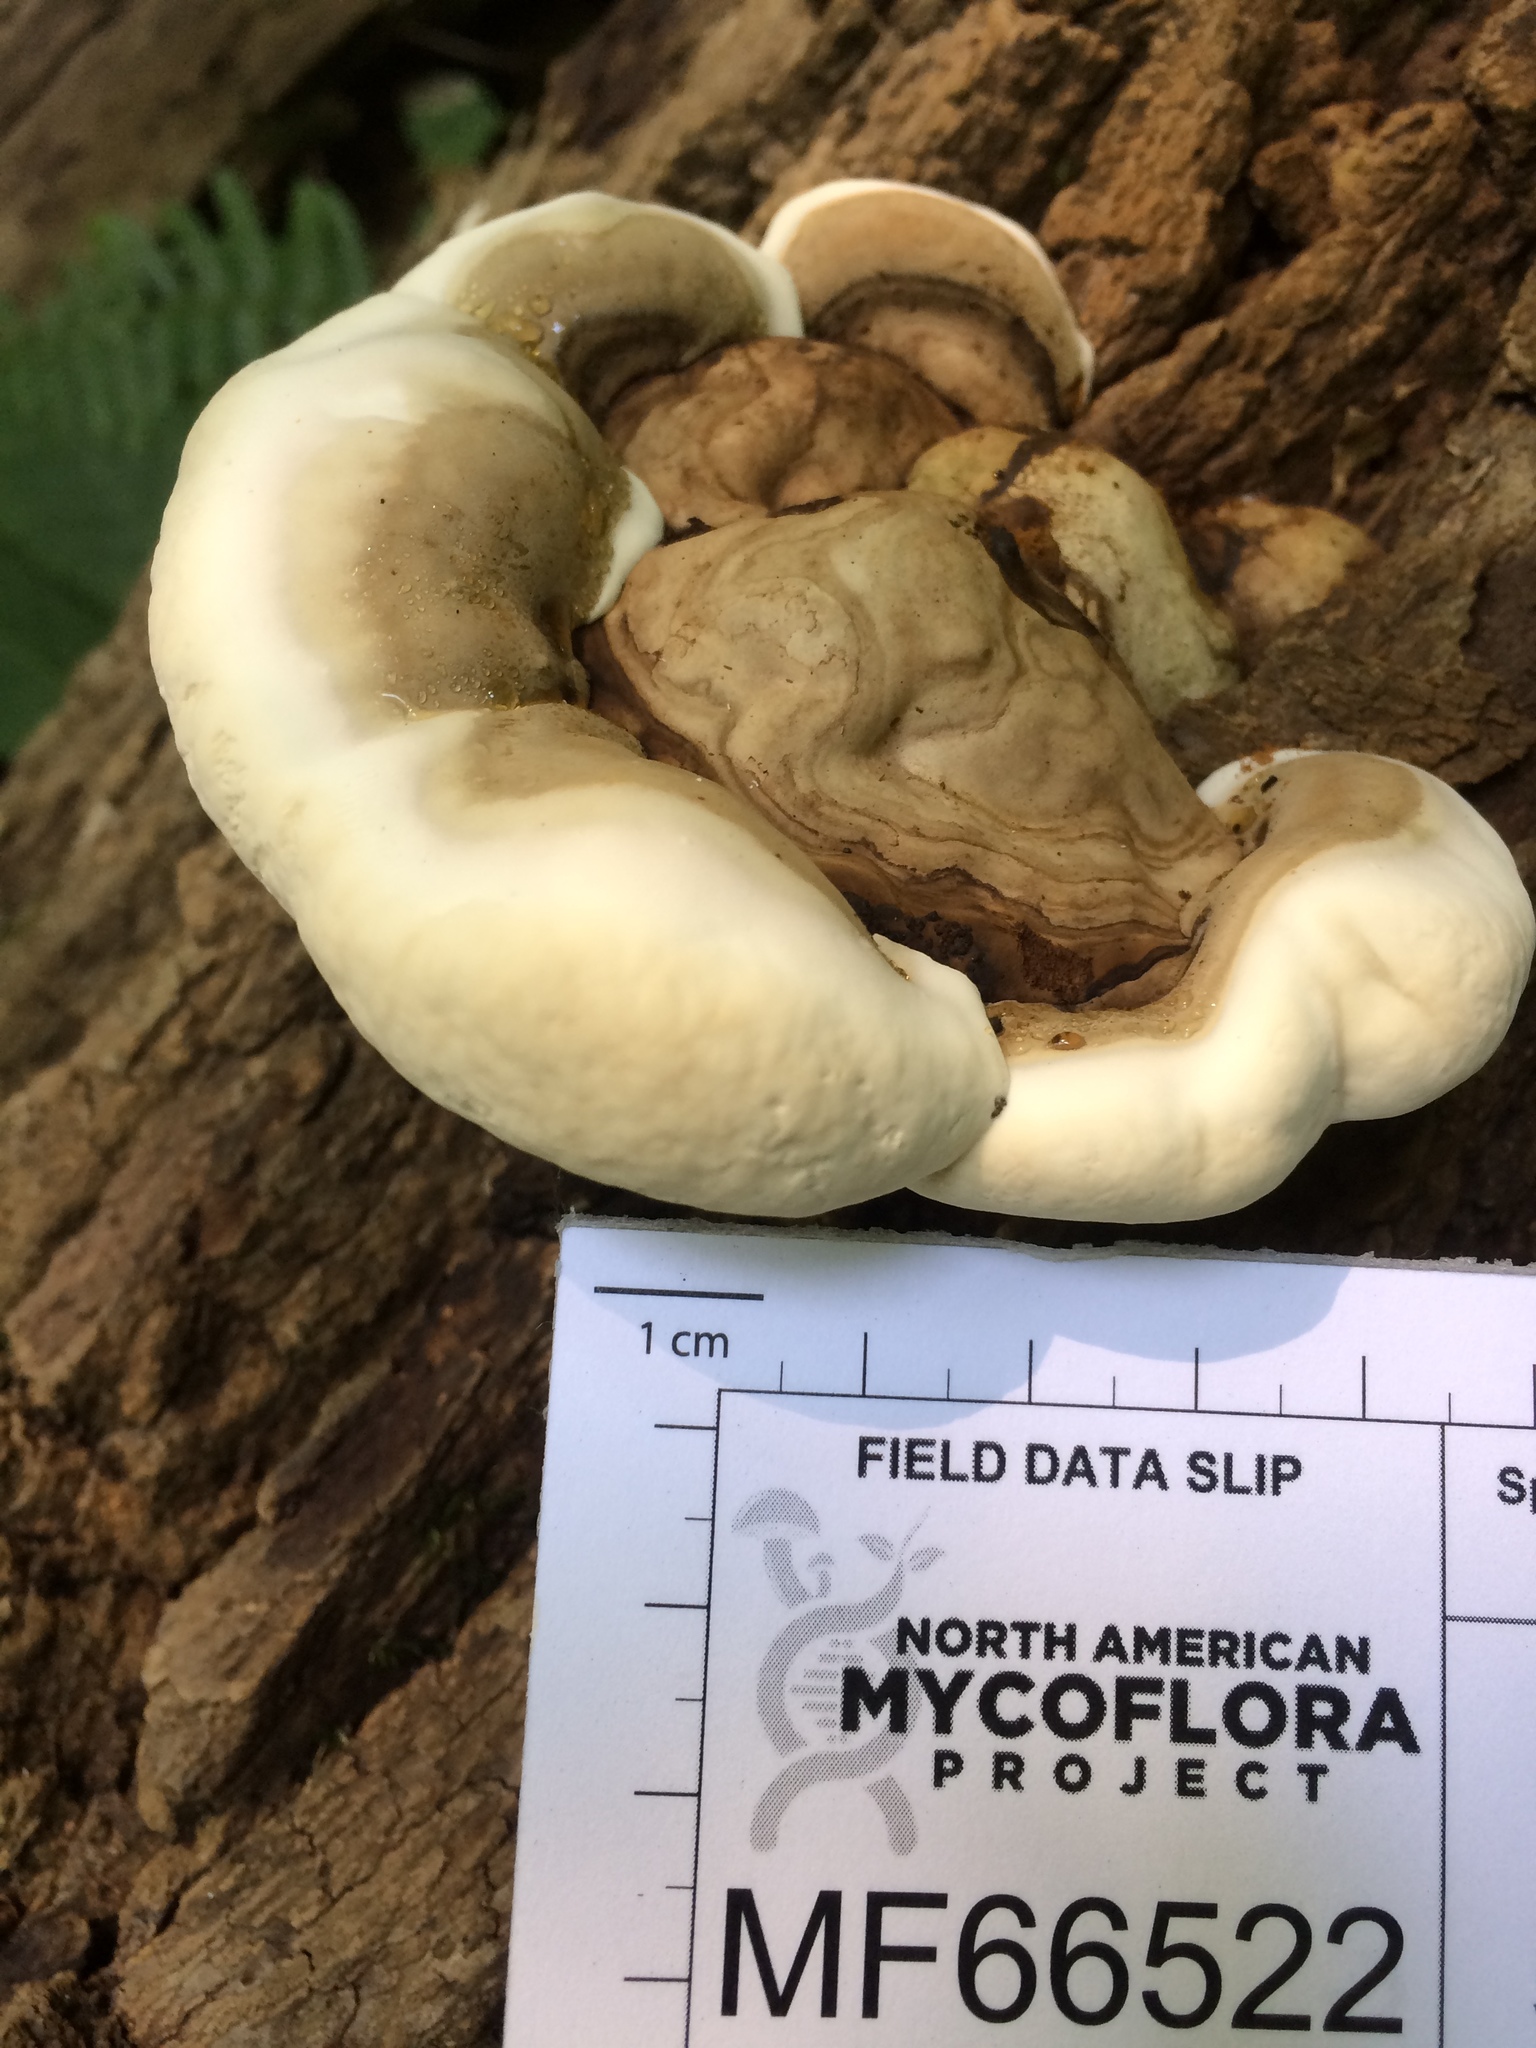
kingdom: Fungi
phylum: Basidiomycota
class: Agaricomycetes
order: Polyporales
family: Polyporaceae
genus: Ganoderma
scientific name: Ganoderma applanatum
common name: Artist's bracket
